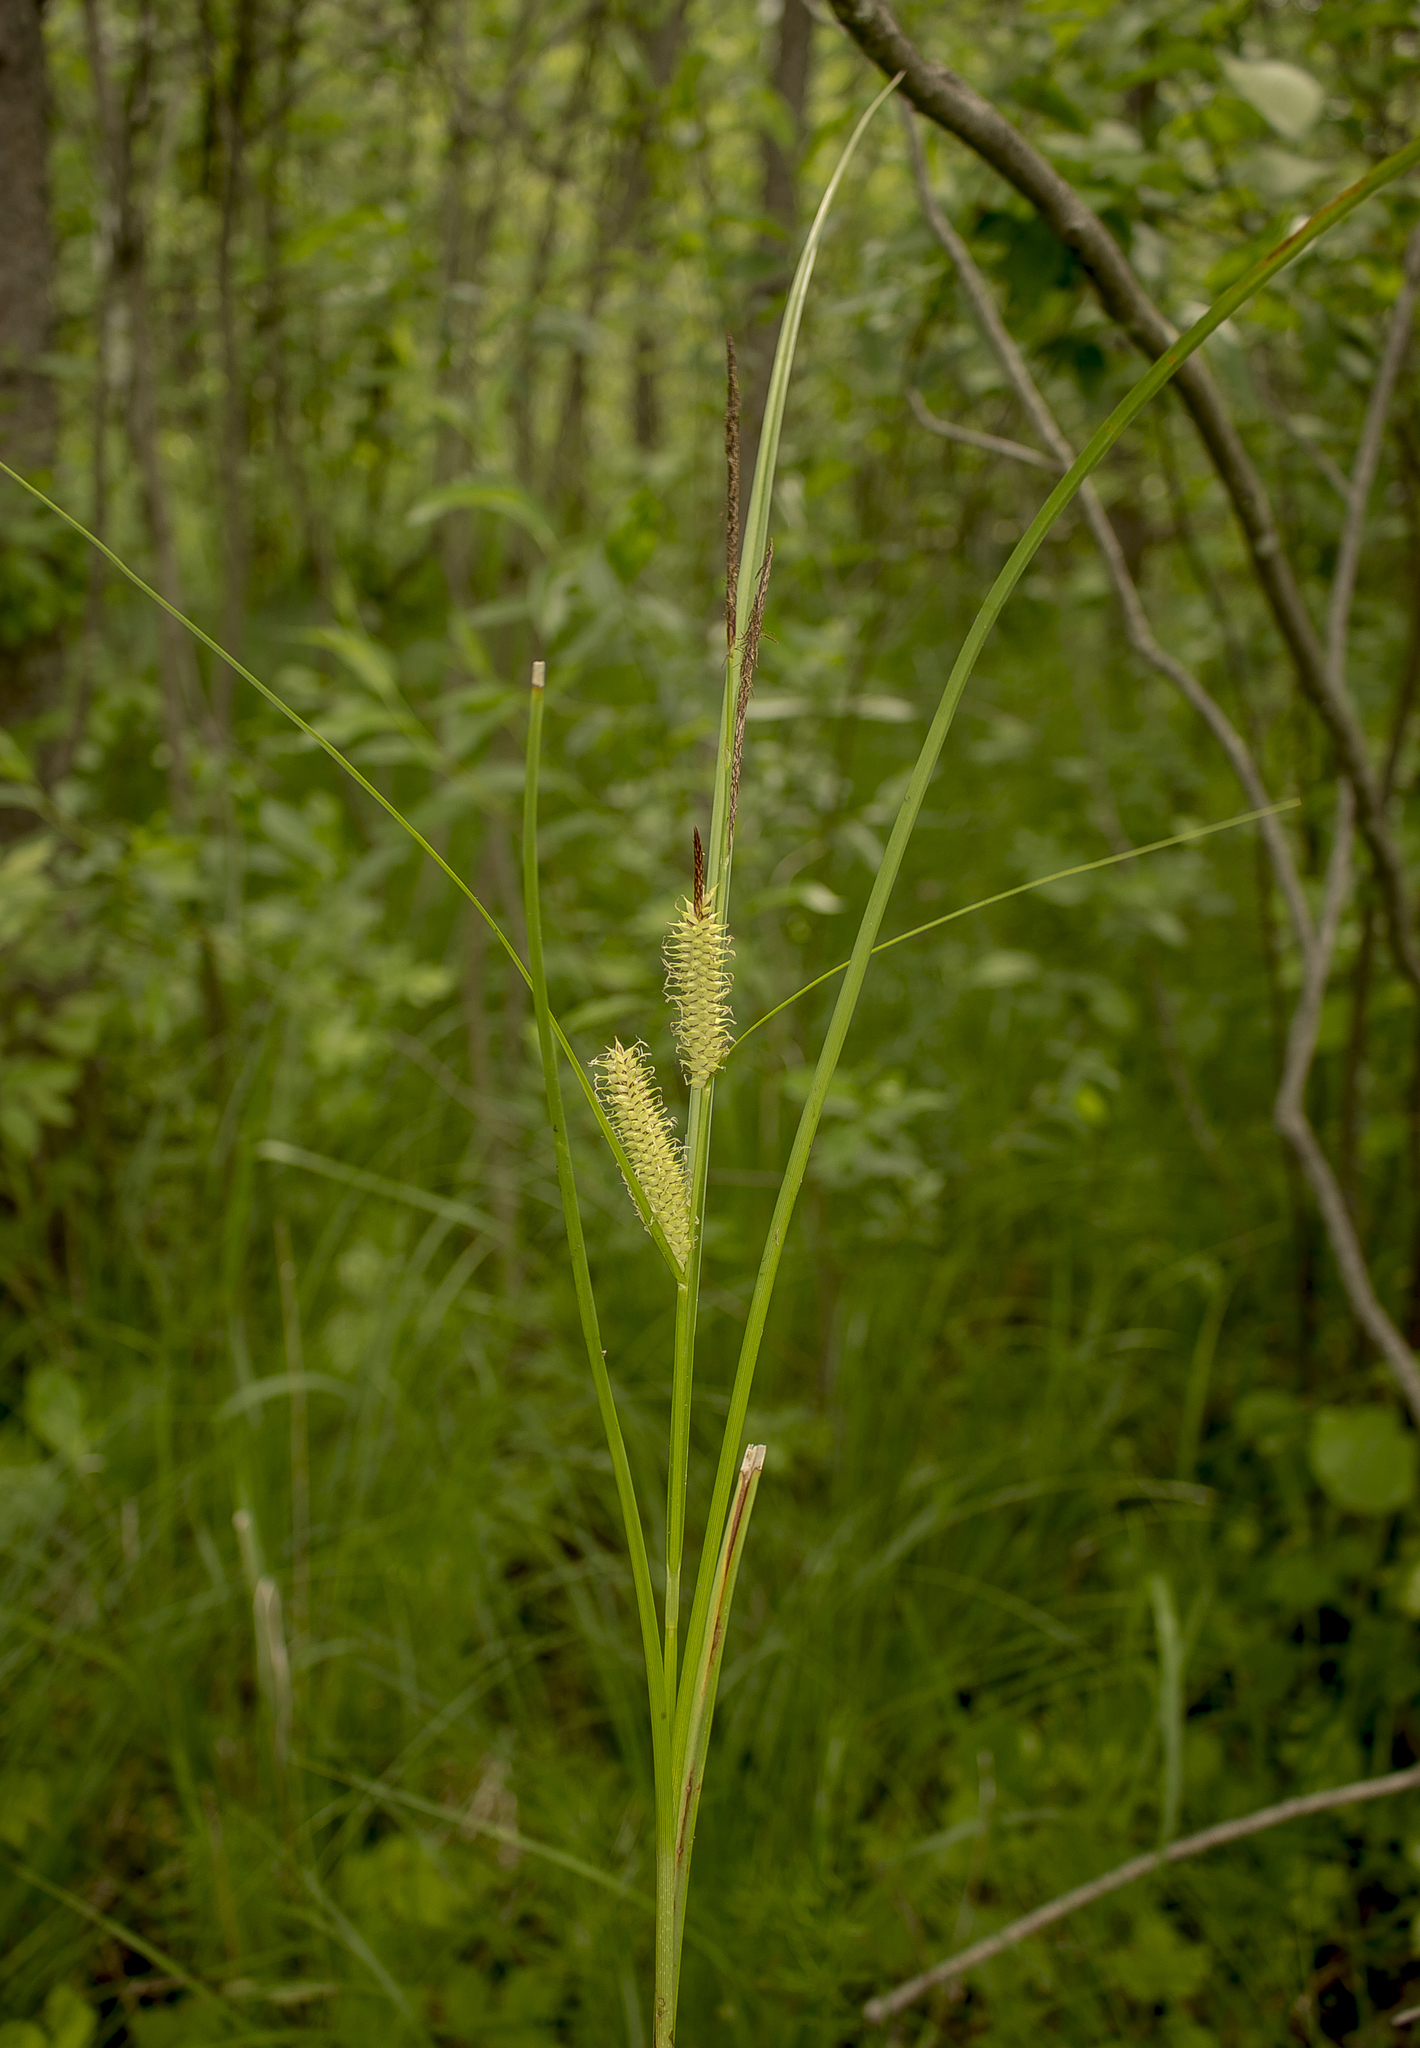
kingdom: Plantae
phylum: Tracheophyta
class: Liliopsida
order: Poales
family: Cyperaceae
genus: Carex
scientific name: Carex utriculata
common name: Beaked sedge
